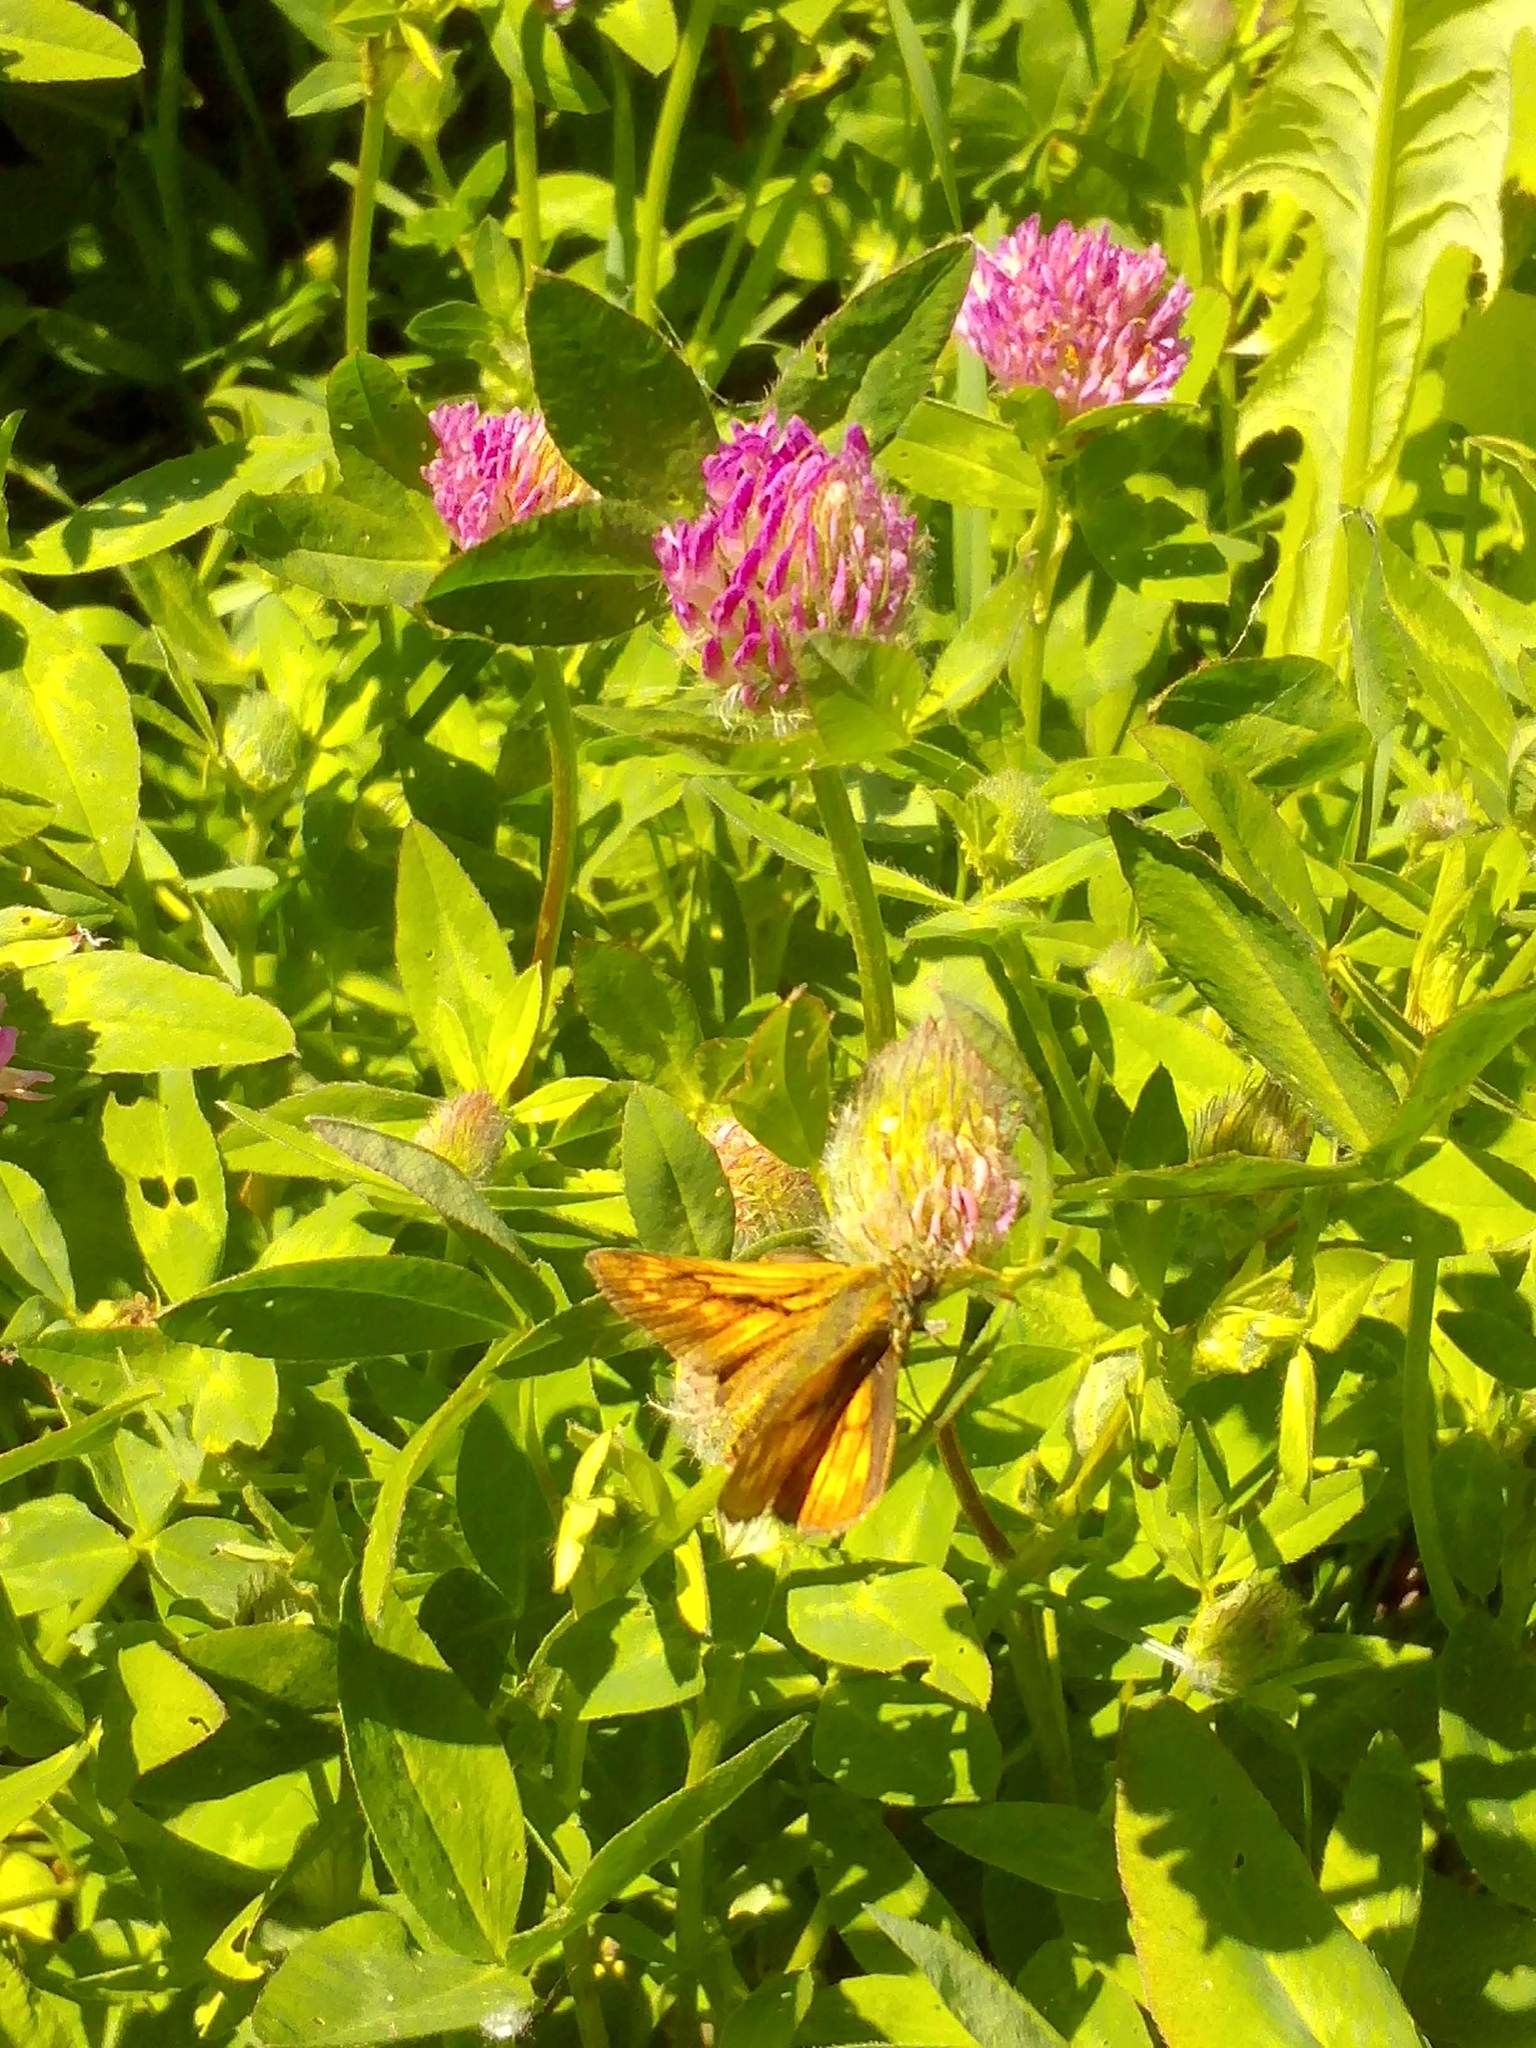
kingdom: Animalia
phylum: Arthropoda
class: Insecta
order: Lepidoptera
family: Hesperiidae
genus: Ochlodes
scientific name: Ochlodes venata
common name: Large skipper
